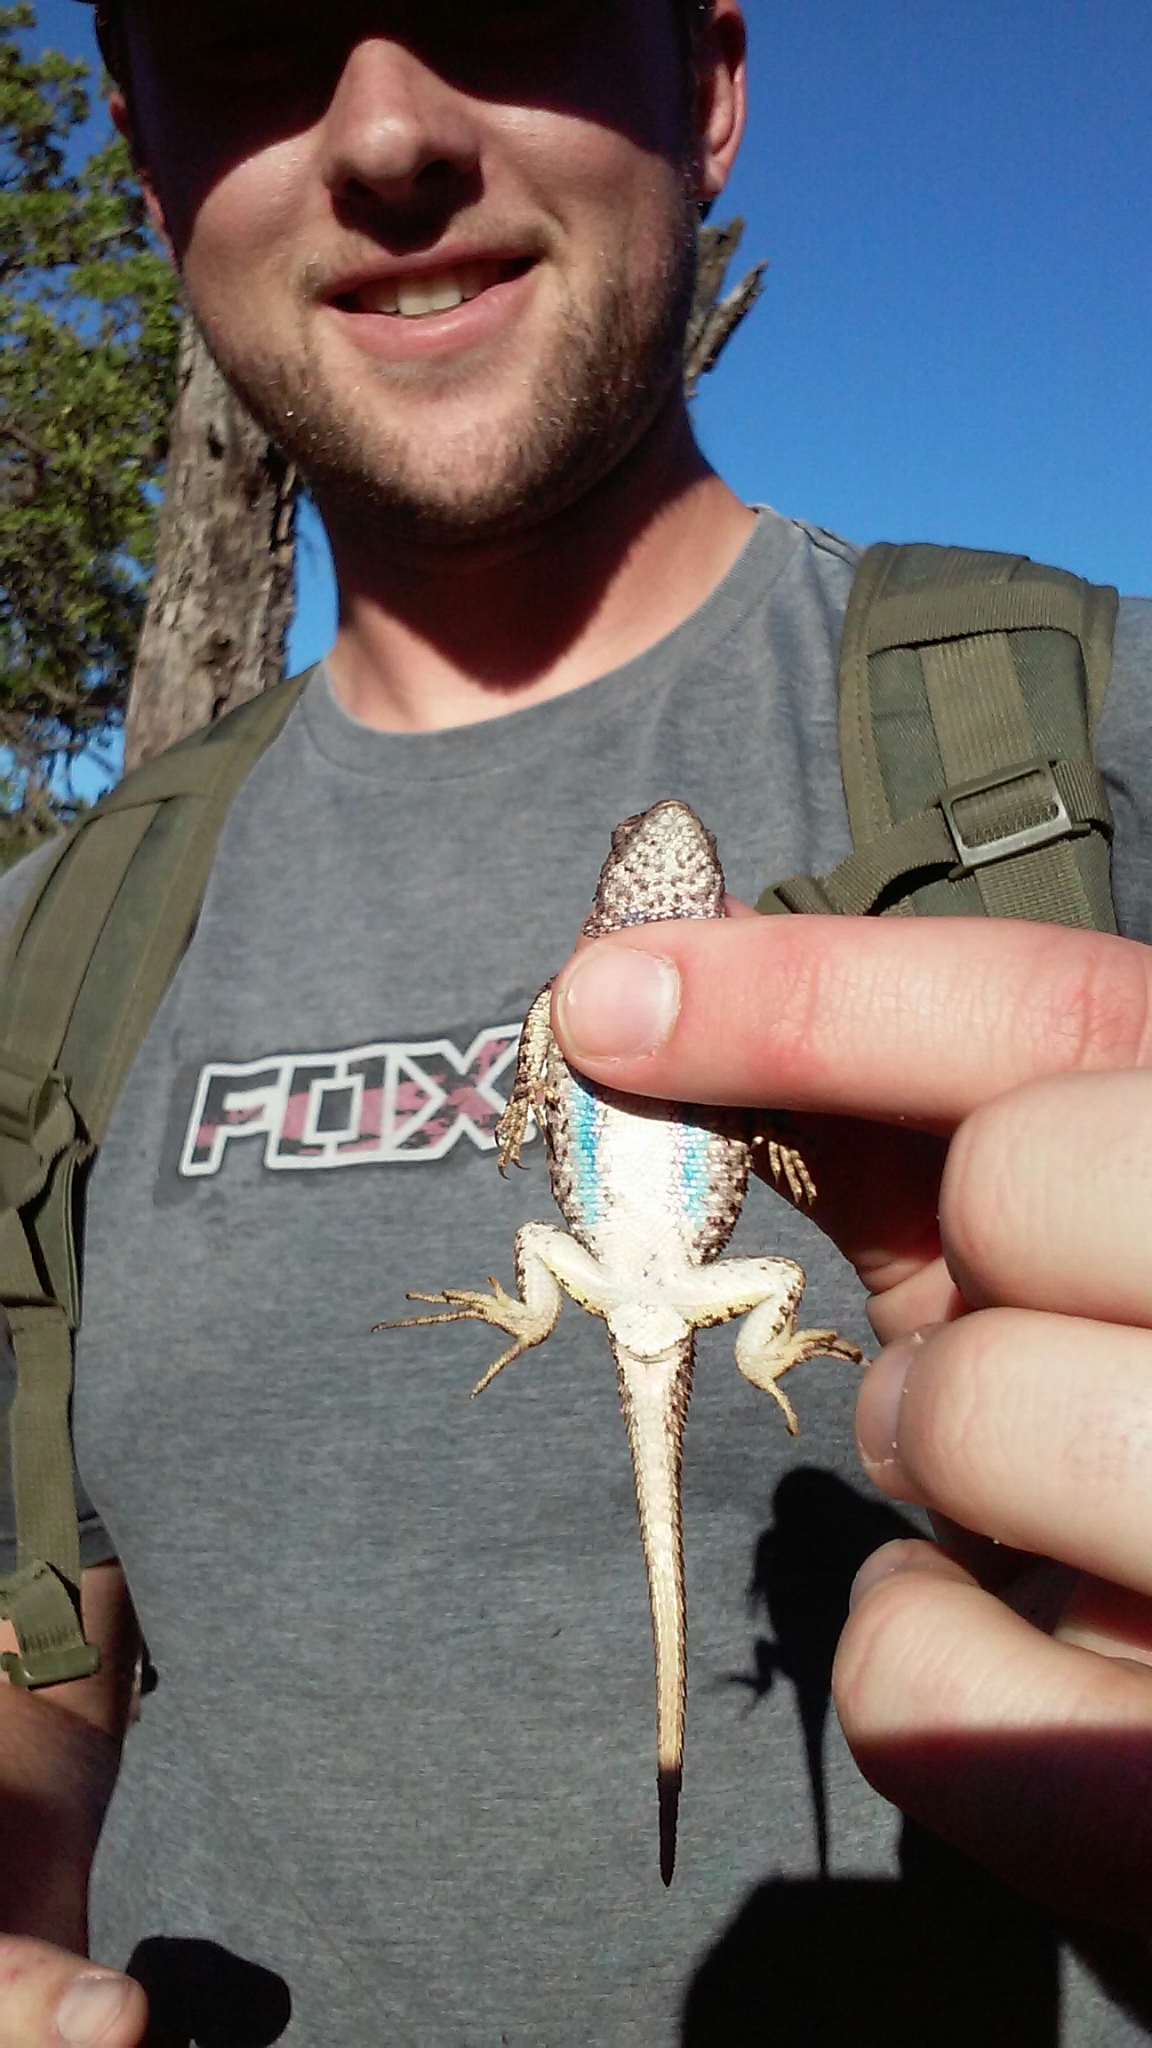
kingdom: Animalia
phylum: Chordata
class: Squamata
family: Phrynosomatidae
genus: Sceloporus
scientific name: Sceloporus occidentalis
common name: Western fence lizard
